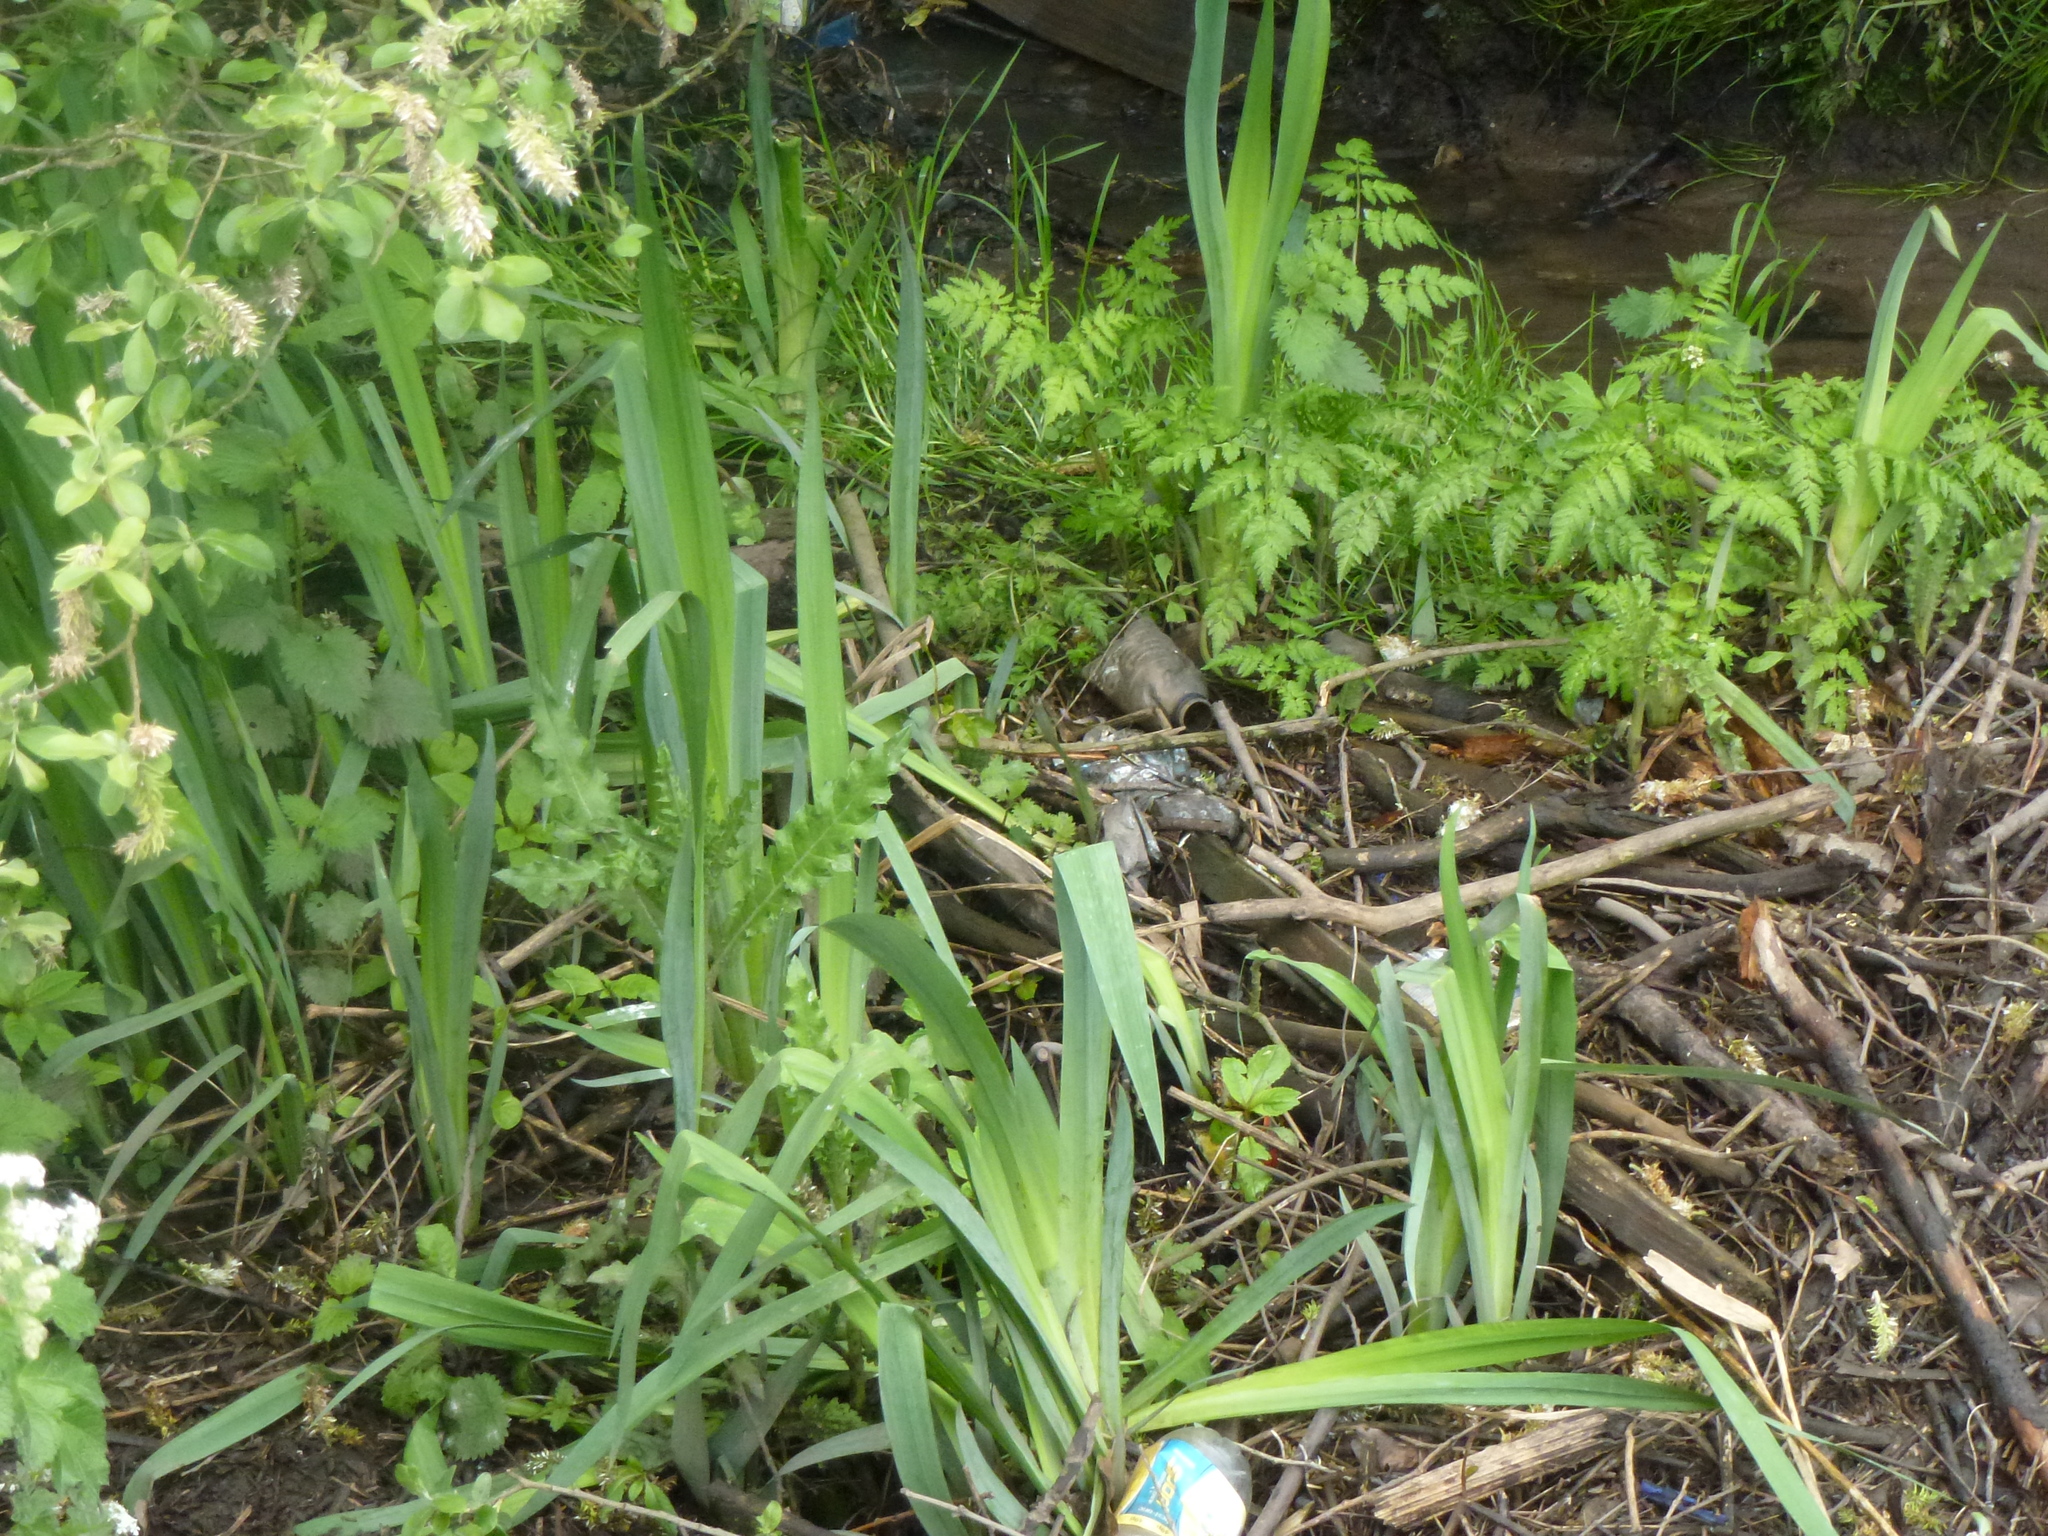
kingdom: Plantae
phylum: Tracheophyta
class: Liliopsida
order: Asparagales
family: Iridaceae
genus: Iris
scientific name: Iris pseudacorus
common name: Yellow flag
